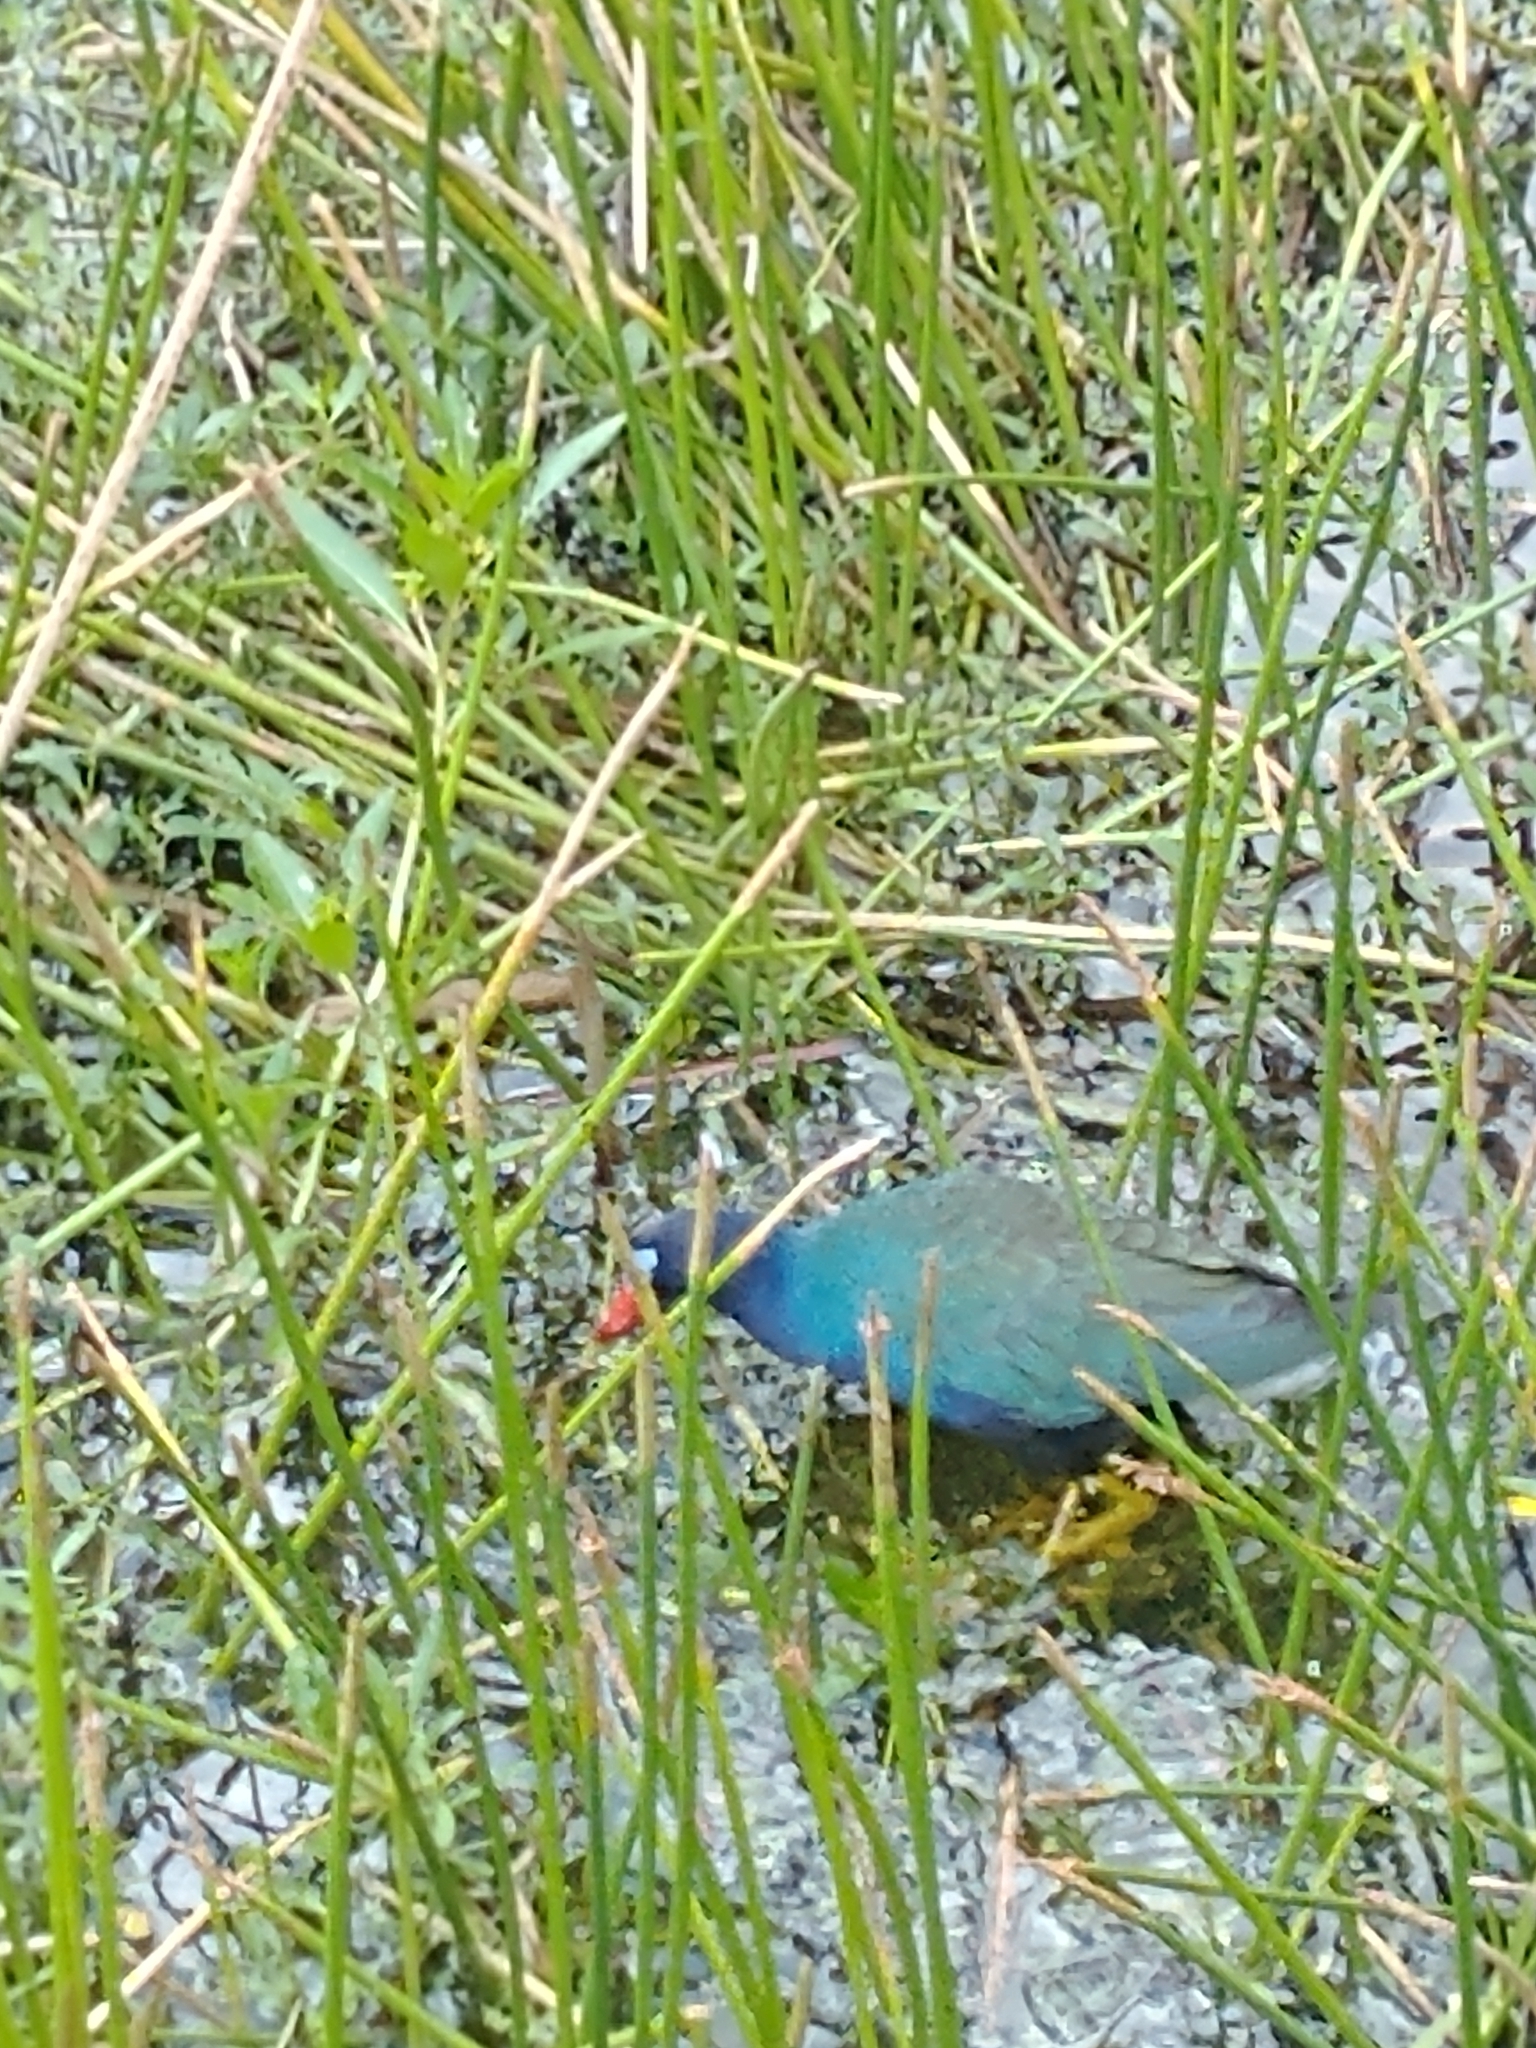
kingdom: Animalia
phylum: Chordata
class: Aves
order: Gruiformes
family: Rallidae
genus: Porphyrio
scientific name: Porphyrio martinica
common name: Purple gallinule
